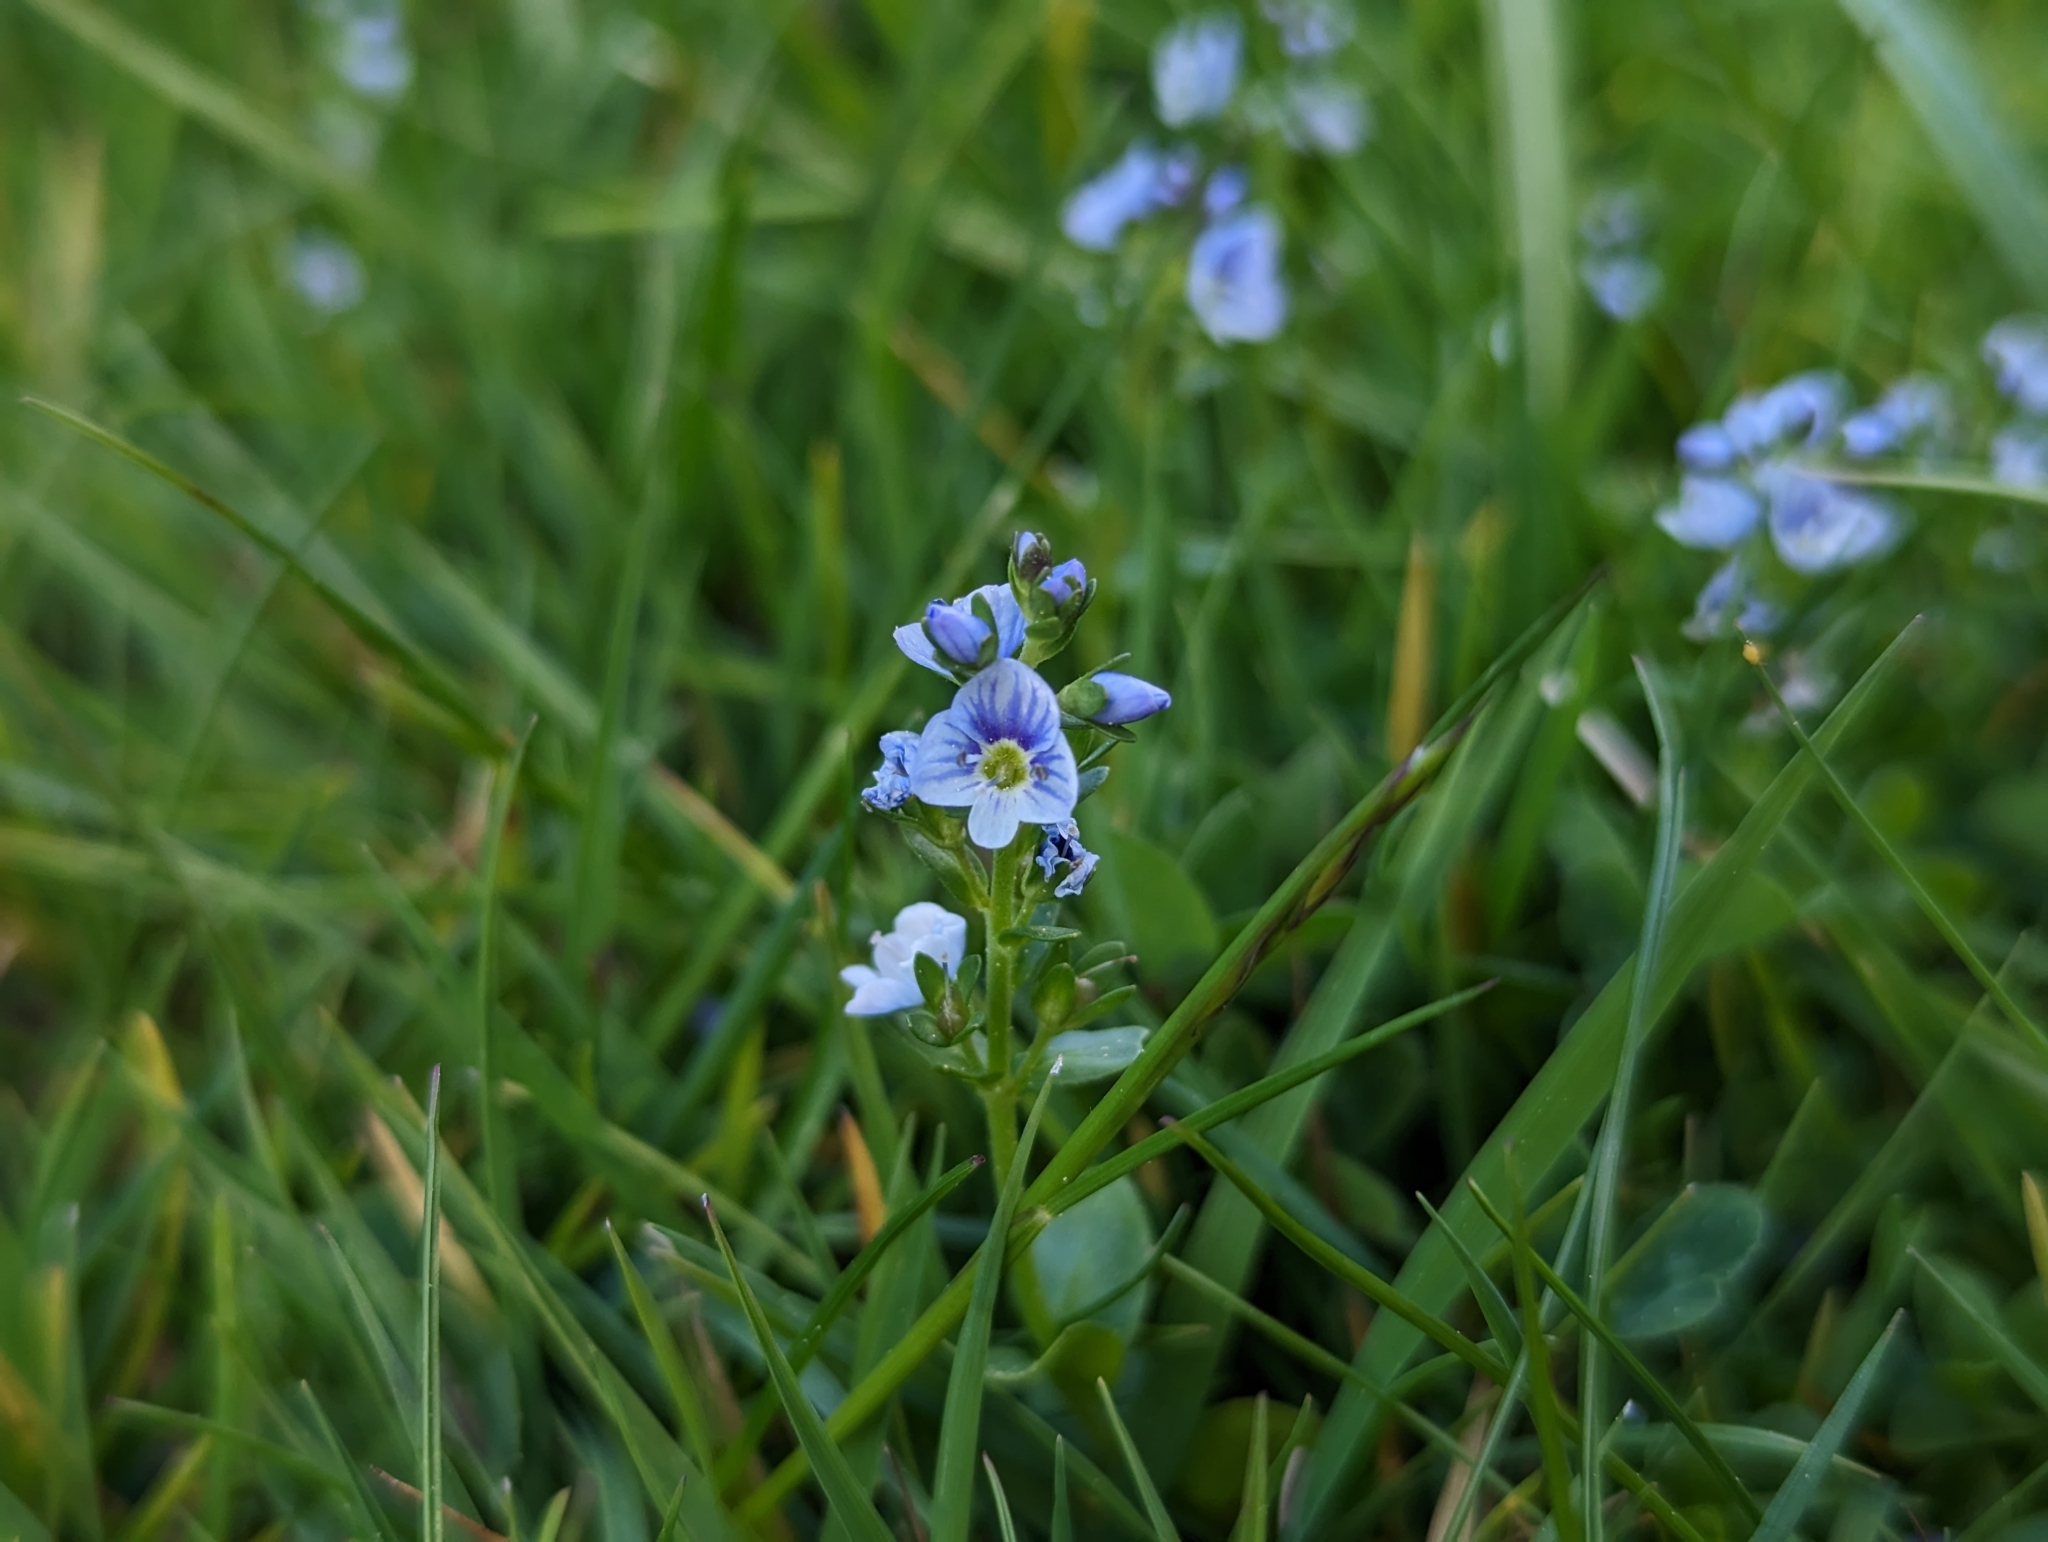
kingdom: Plantae
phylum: Tracheophyta
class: Magnoliopsida
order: Lamiales
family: Plantaginaceae
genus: Veronica
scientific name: Veronica serpyllifolia
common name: Thyme-leaved speedwell
